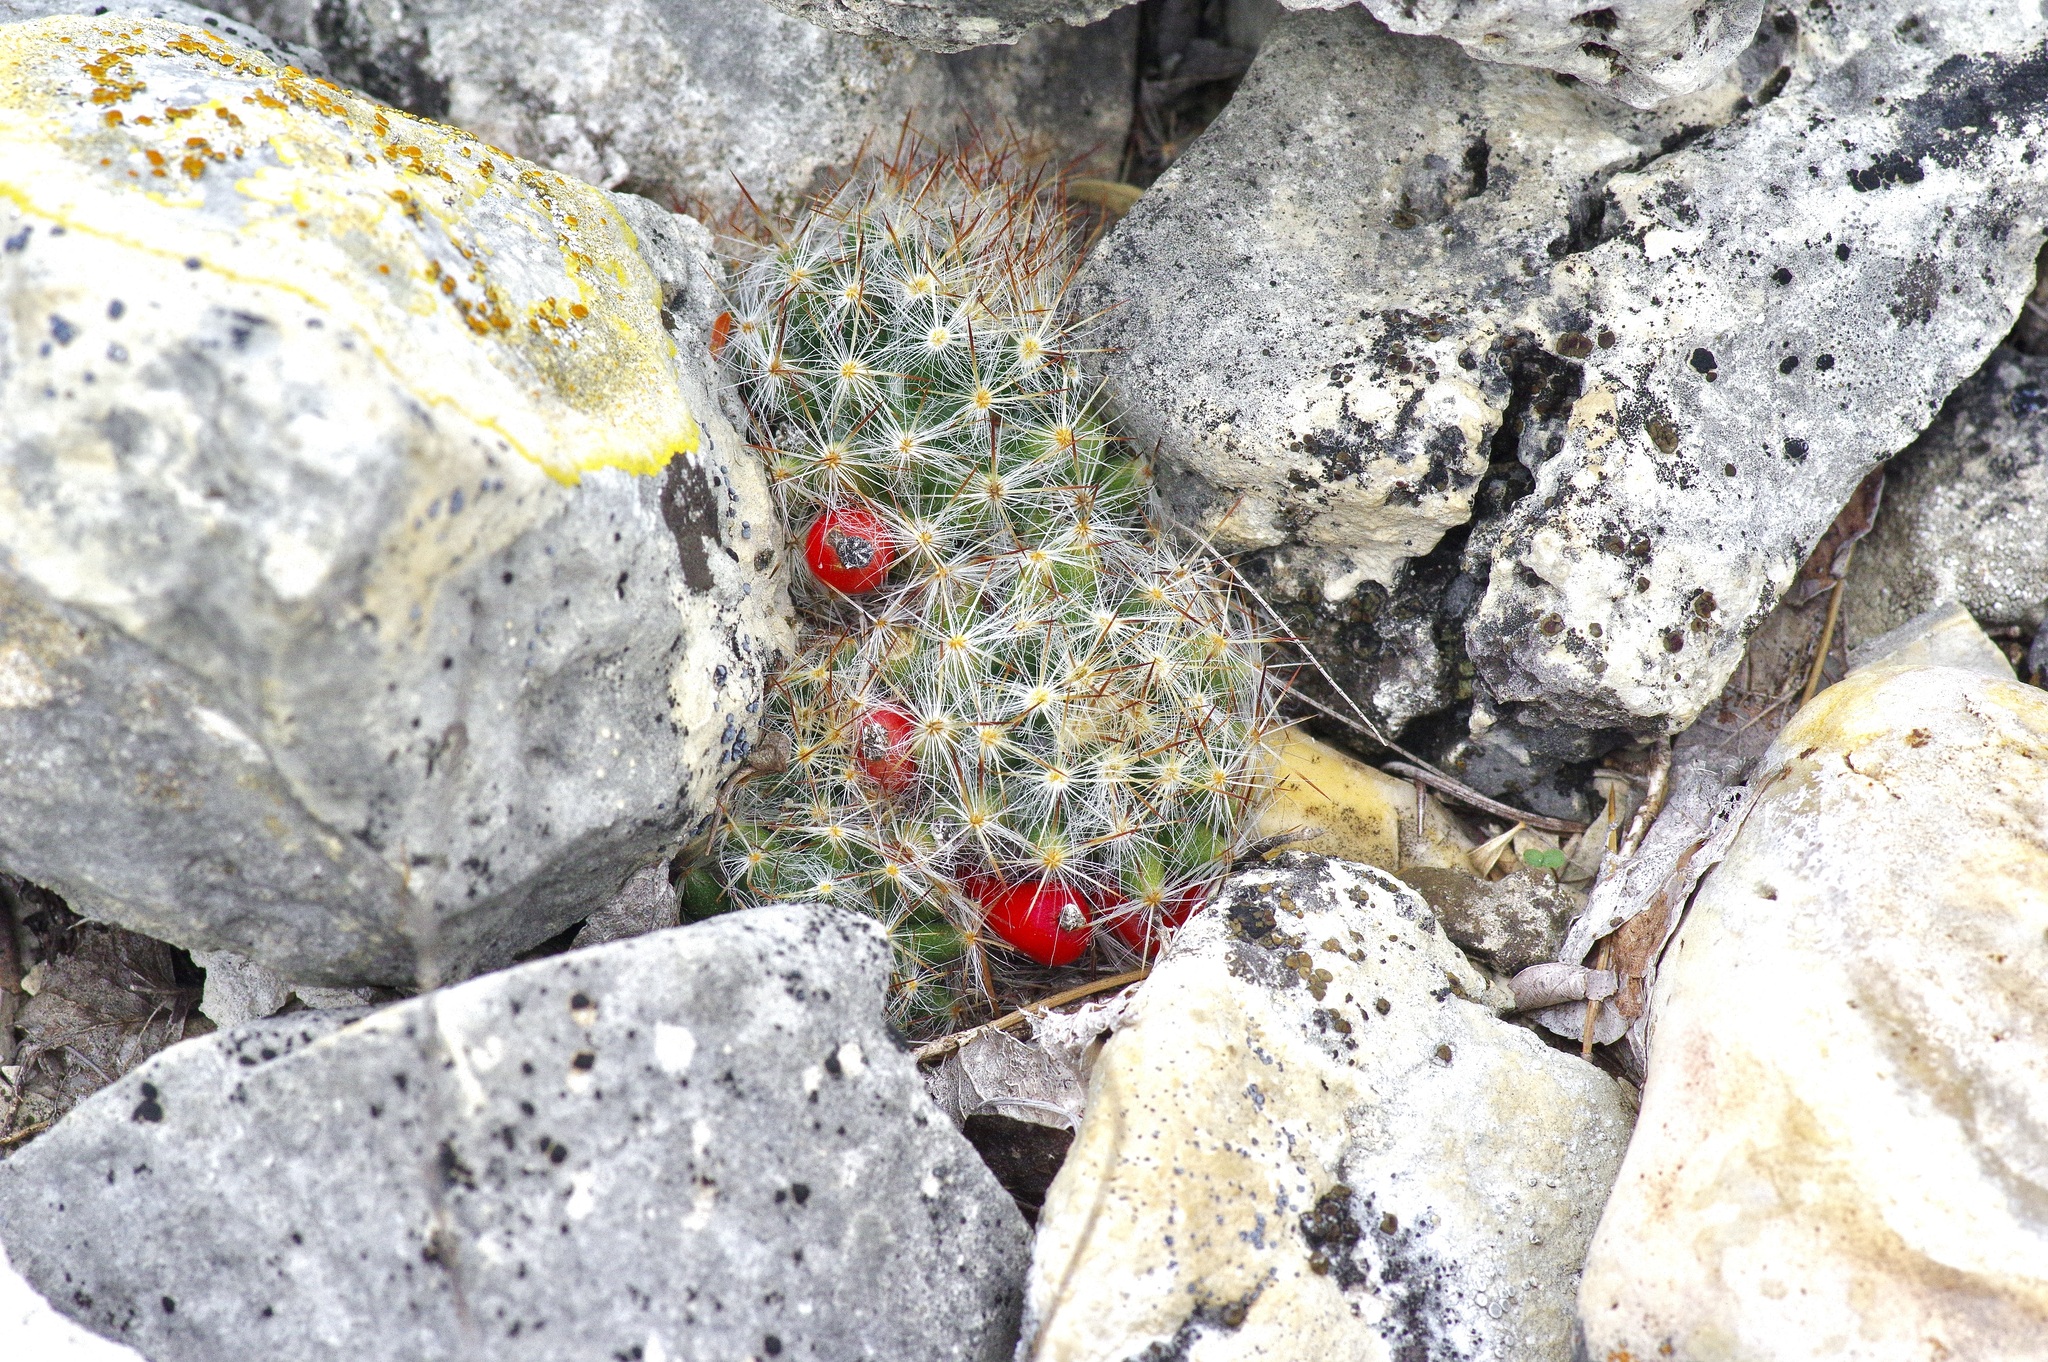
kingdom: Plantae
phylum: Tracheophyta
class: Magnoliopsida
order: Caryophyllales
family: Cactaceae
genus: Mammillaria
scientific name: Mammillaria prolifera
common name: Texas nipple cactus
